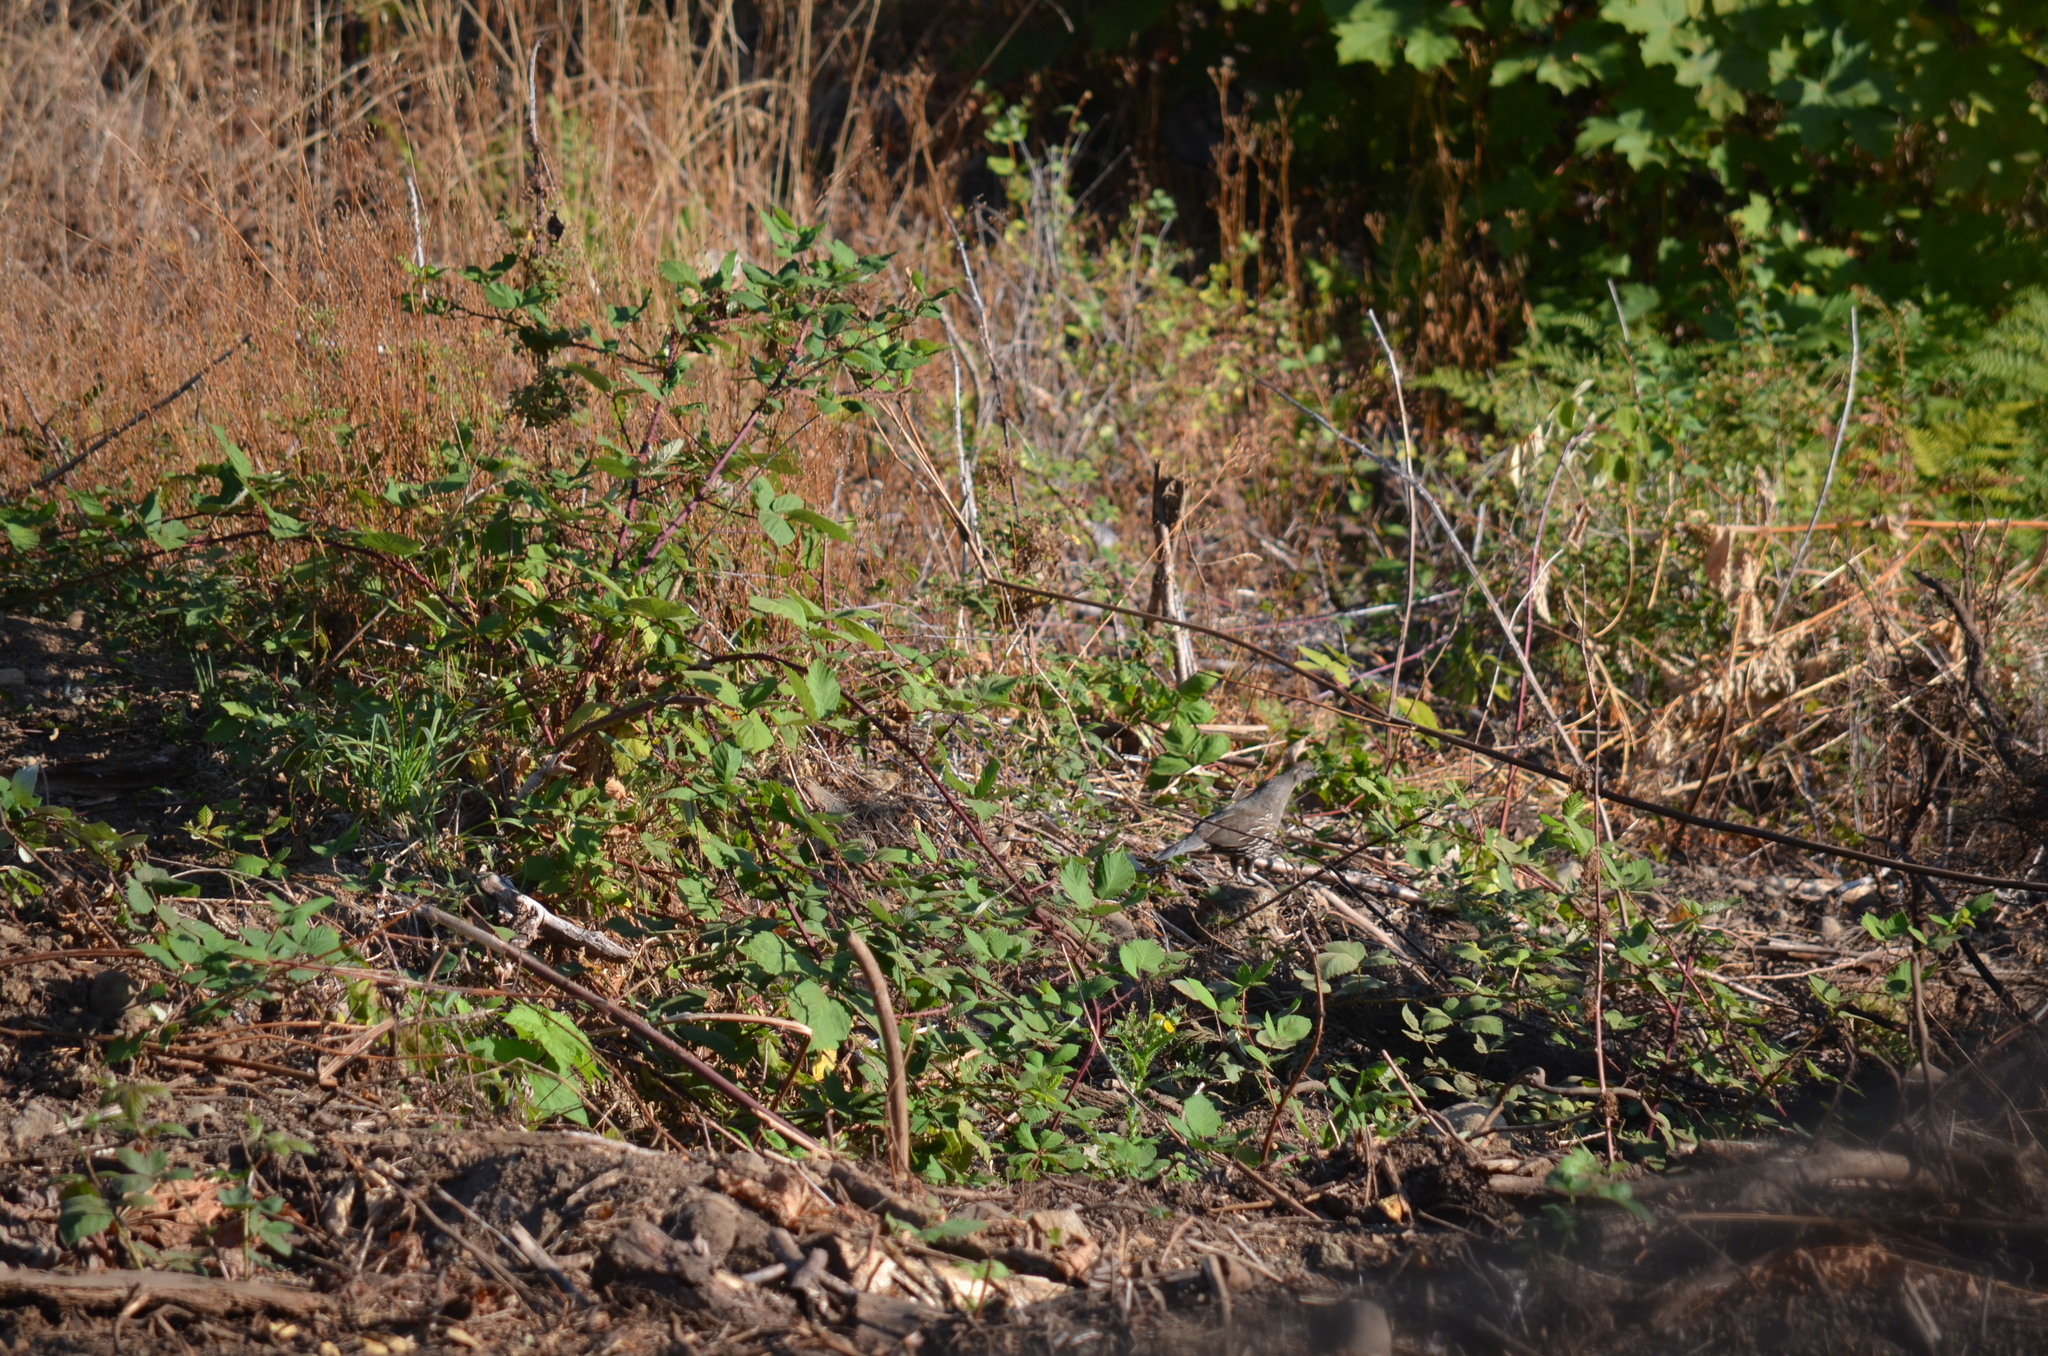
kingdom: Animalia
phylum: Chordata
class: Aves
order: Galliformes
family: Odontophoridae
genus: Callipepla
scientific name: Callipepla californica
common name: California quail
